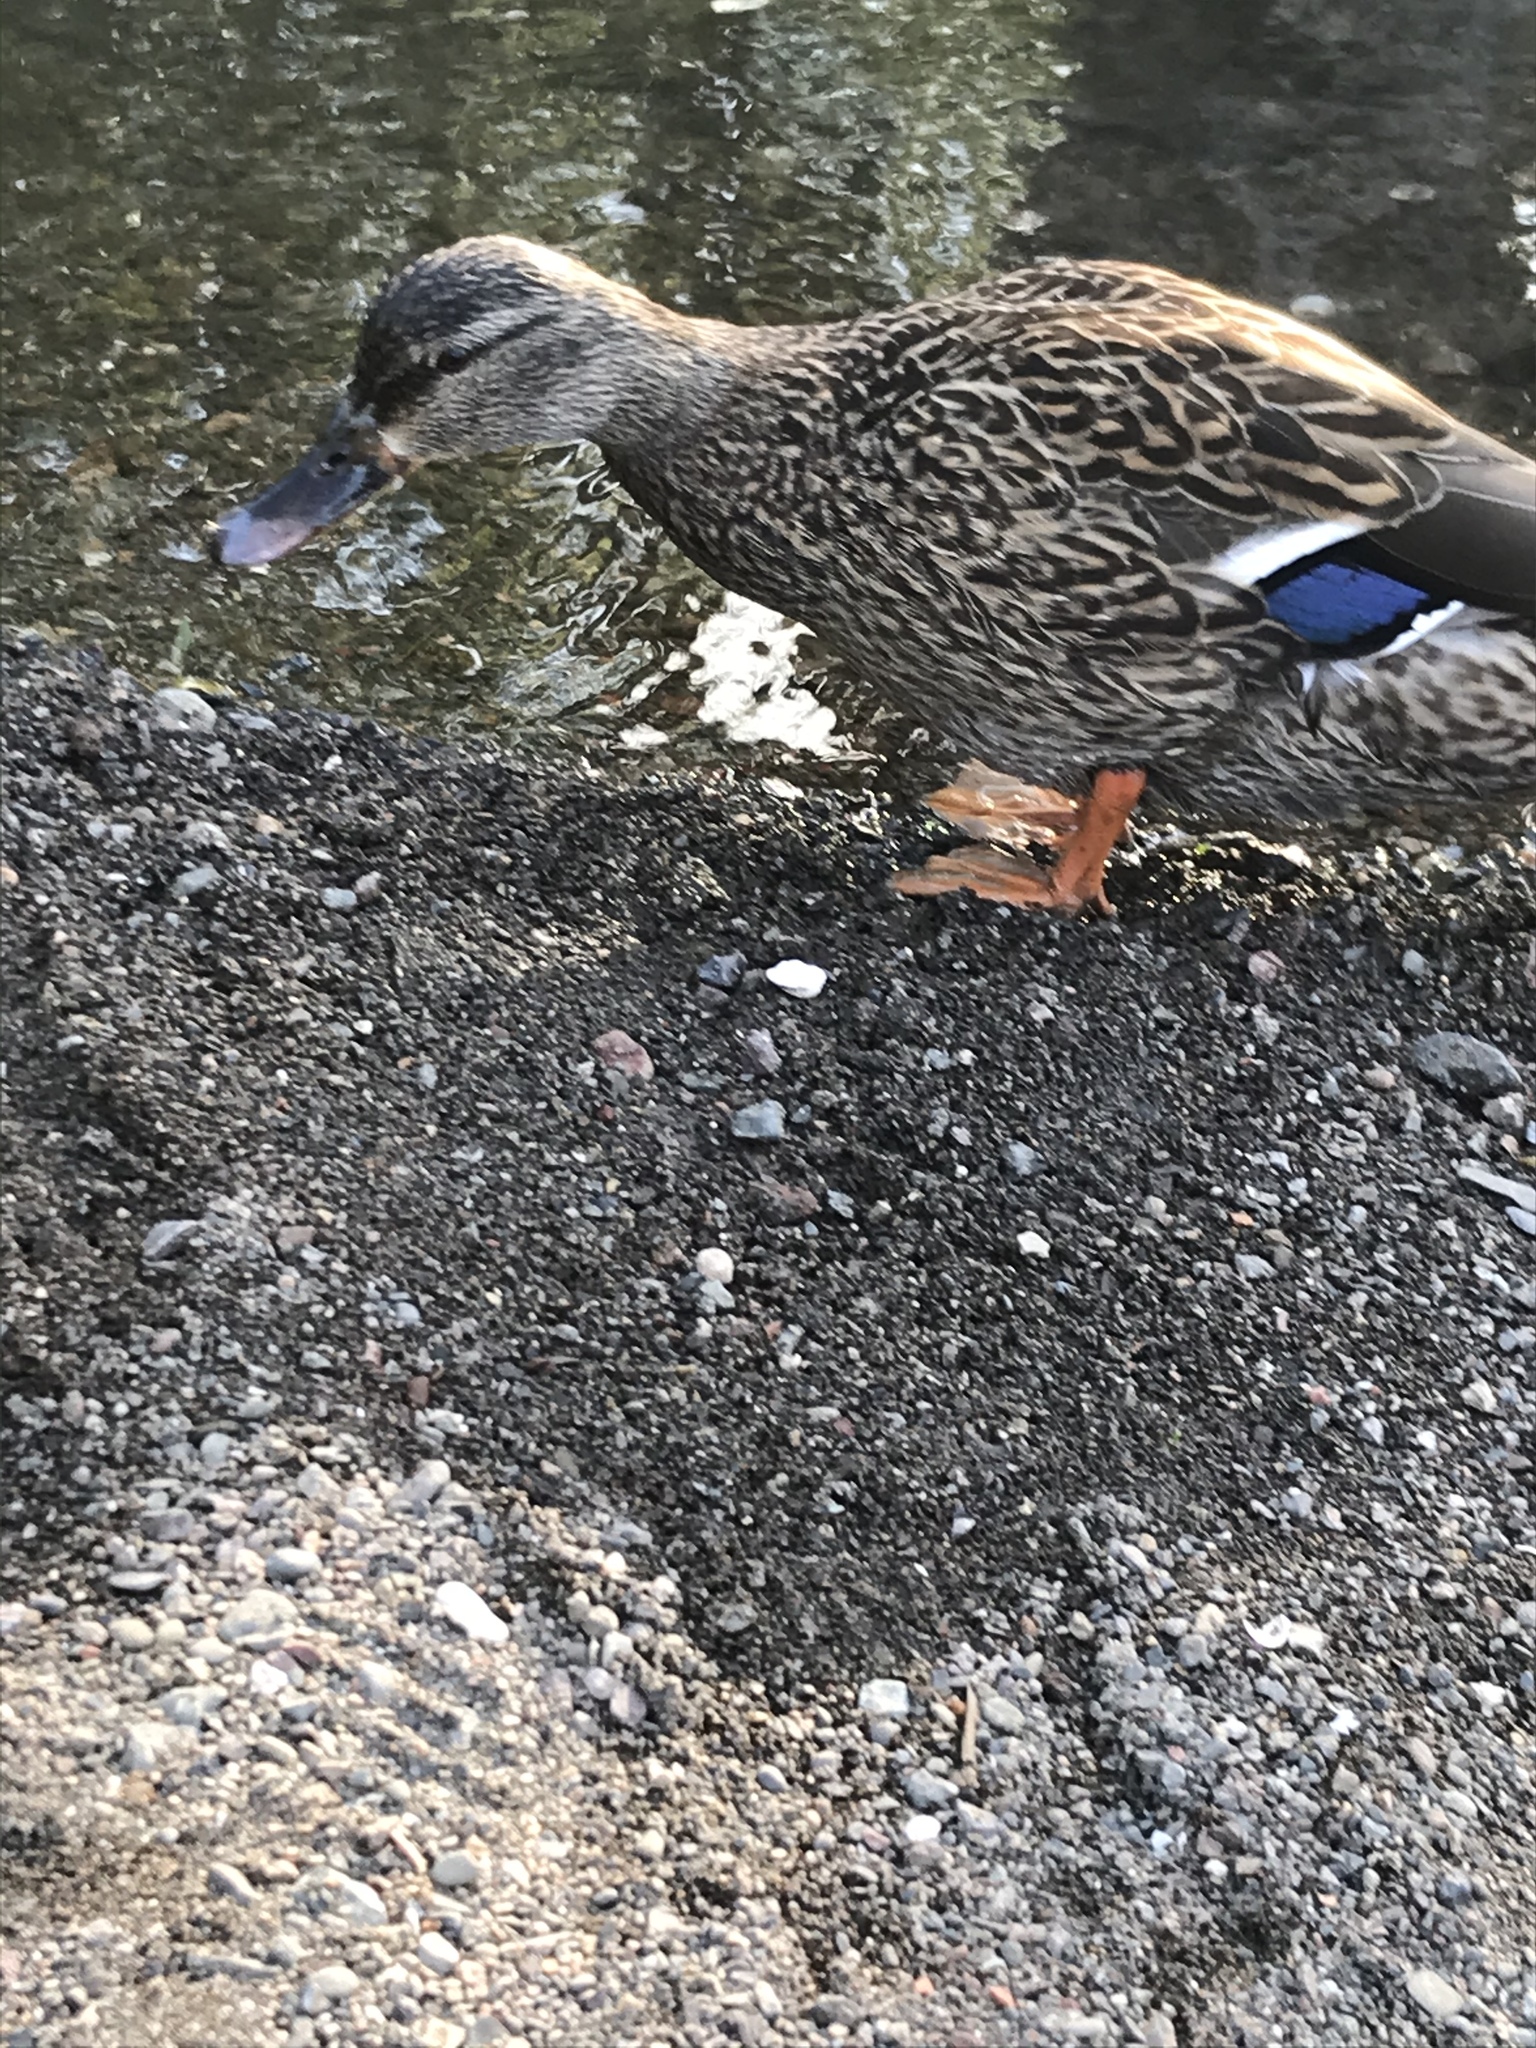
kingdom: Animalia
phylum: Chordata
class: Aves
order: Anseriformes
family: Anatidae
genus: Anas
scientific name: Anas platyrhynchos
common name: Mallard
